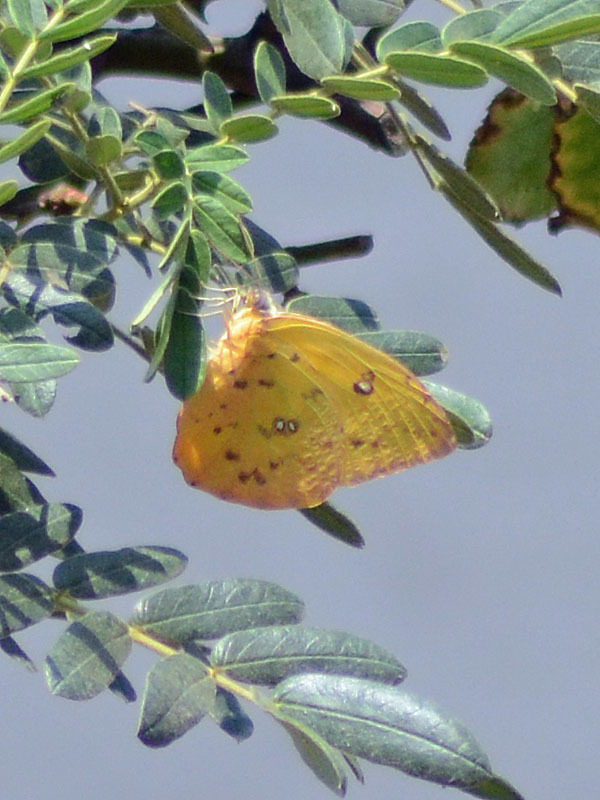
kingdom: Animalia
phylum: Arthropoda
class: Insecta
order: Lepidoptera
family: Pieridae
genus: Phoebis
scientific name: Phoebis philea
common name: Orange-barred giant sulphur
